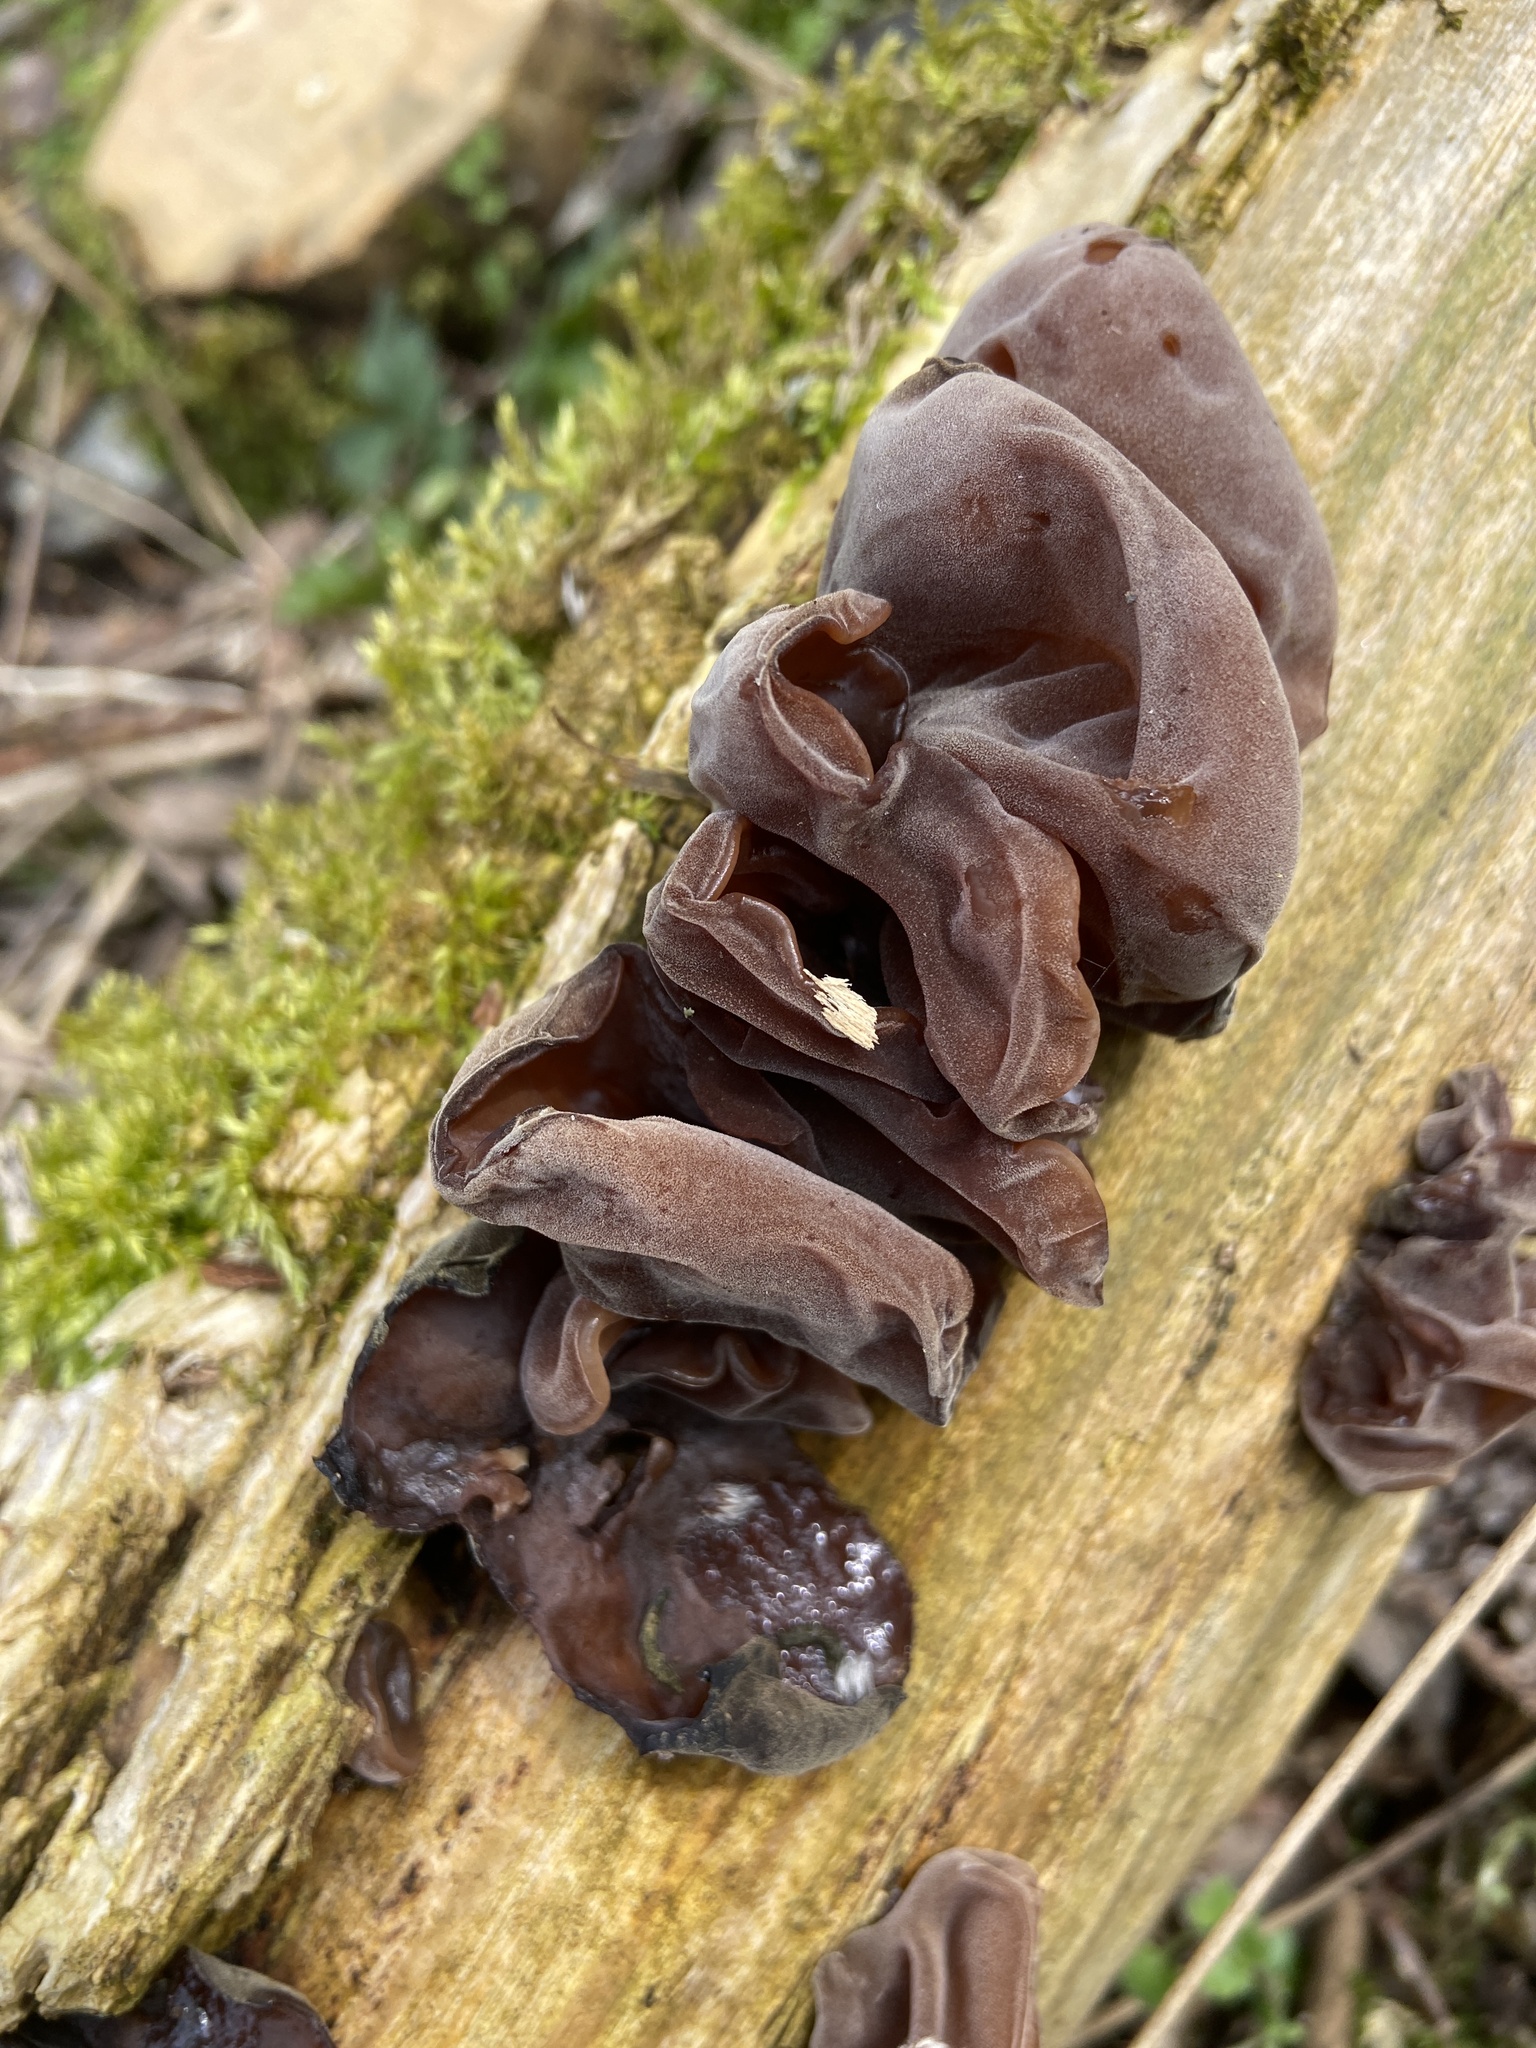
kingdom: Fungi
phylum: Basidiomycota
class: Agaricomycetes
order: Auriculariales
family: Auriculariaceae
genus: Auricularia
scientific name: Auricularia auricula-judae
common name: Jelly ear
